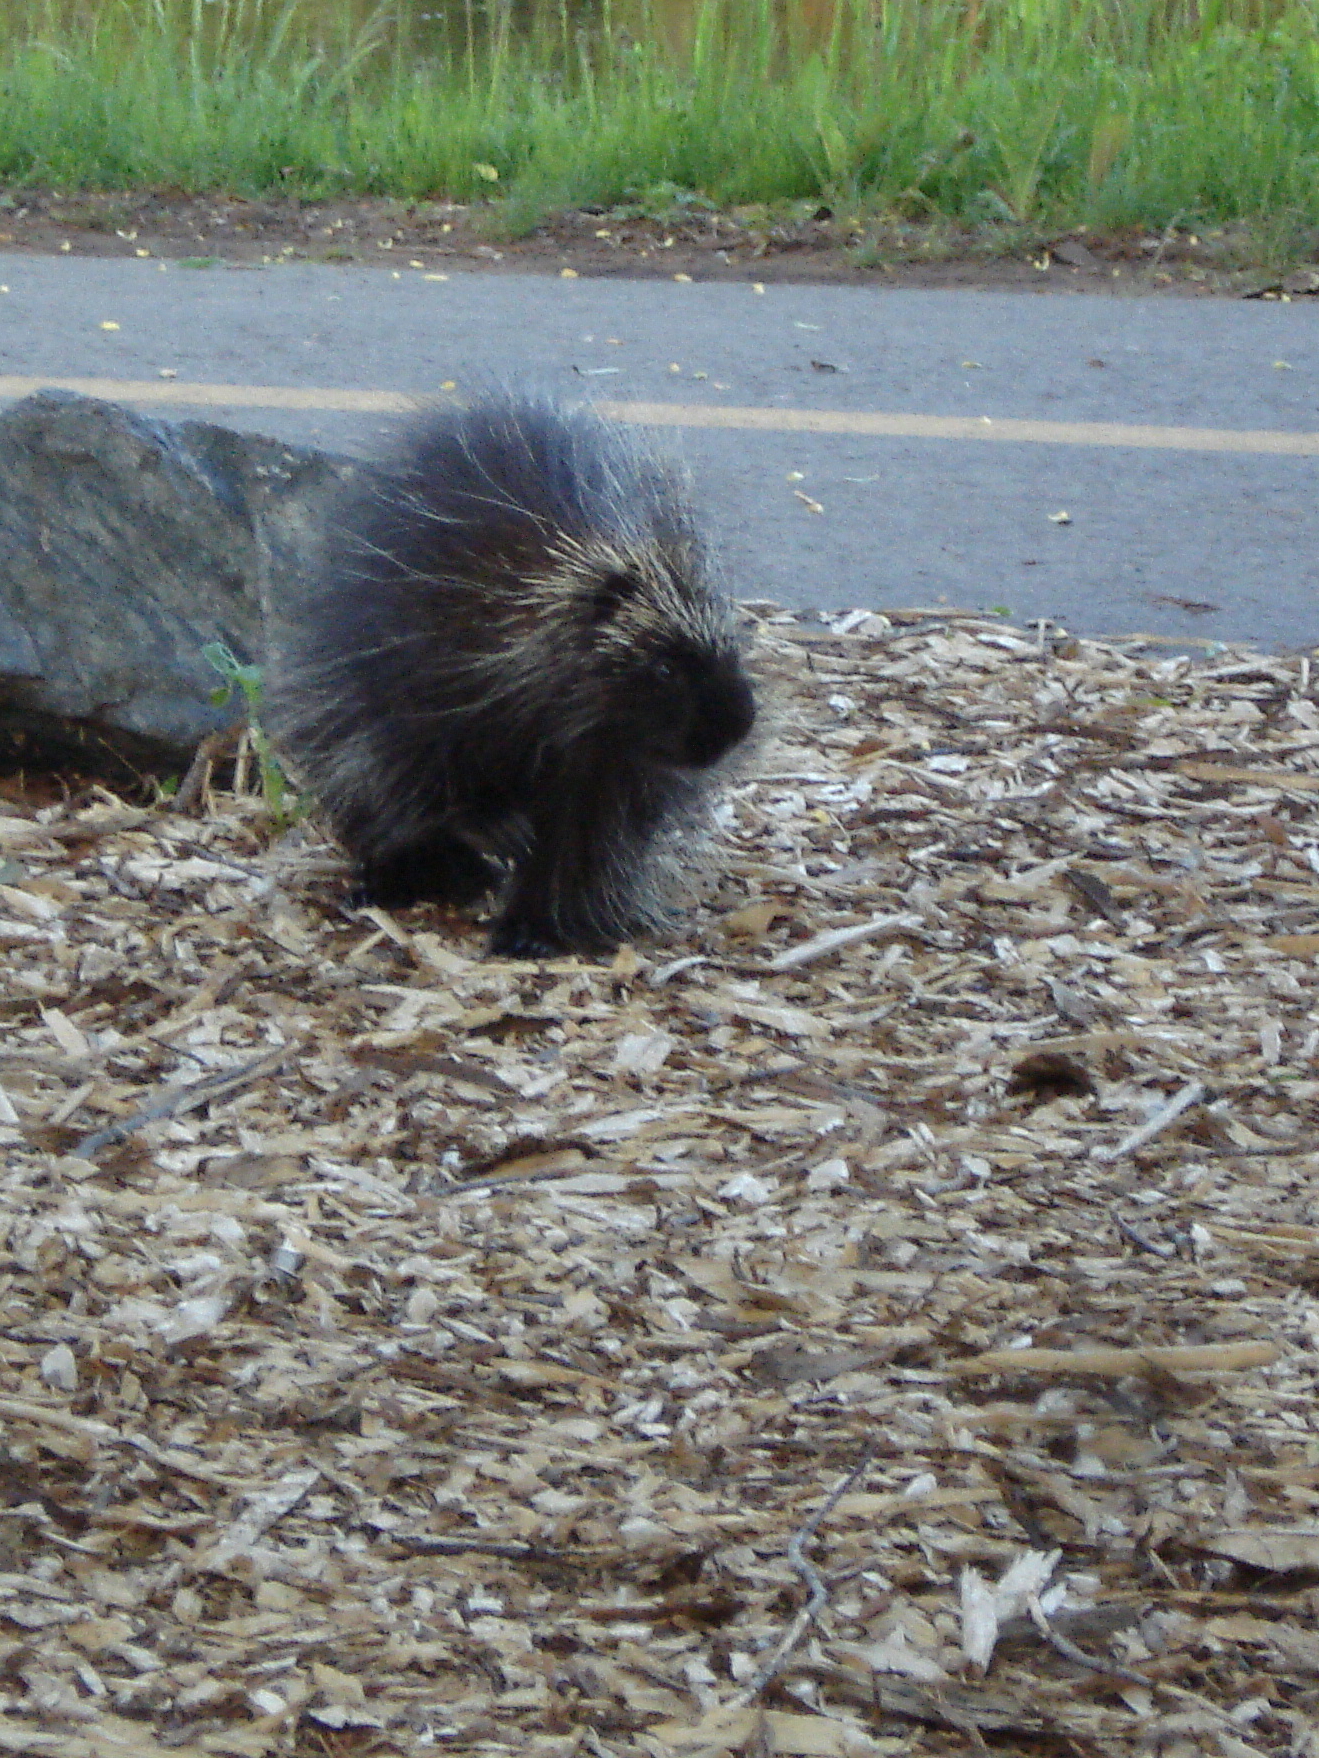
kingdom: Animalia
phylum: Chordata
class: Mammalia
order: Rodentia
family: Erethizontidae
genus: Erethizon
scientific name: Erethizon dorsatus
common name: North american porcupine
